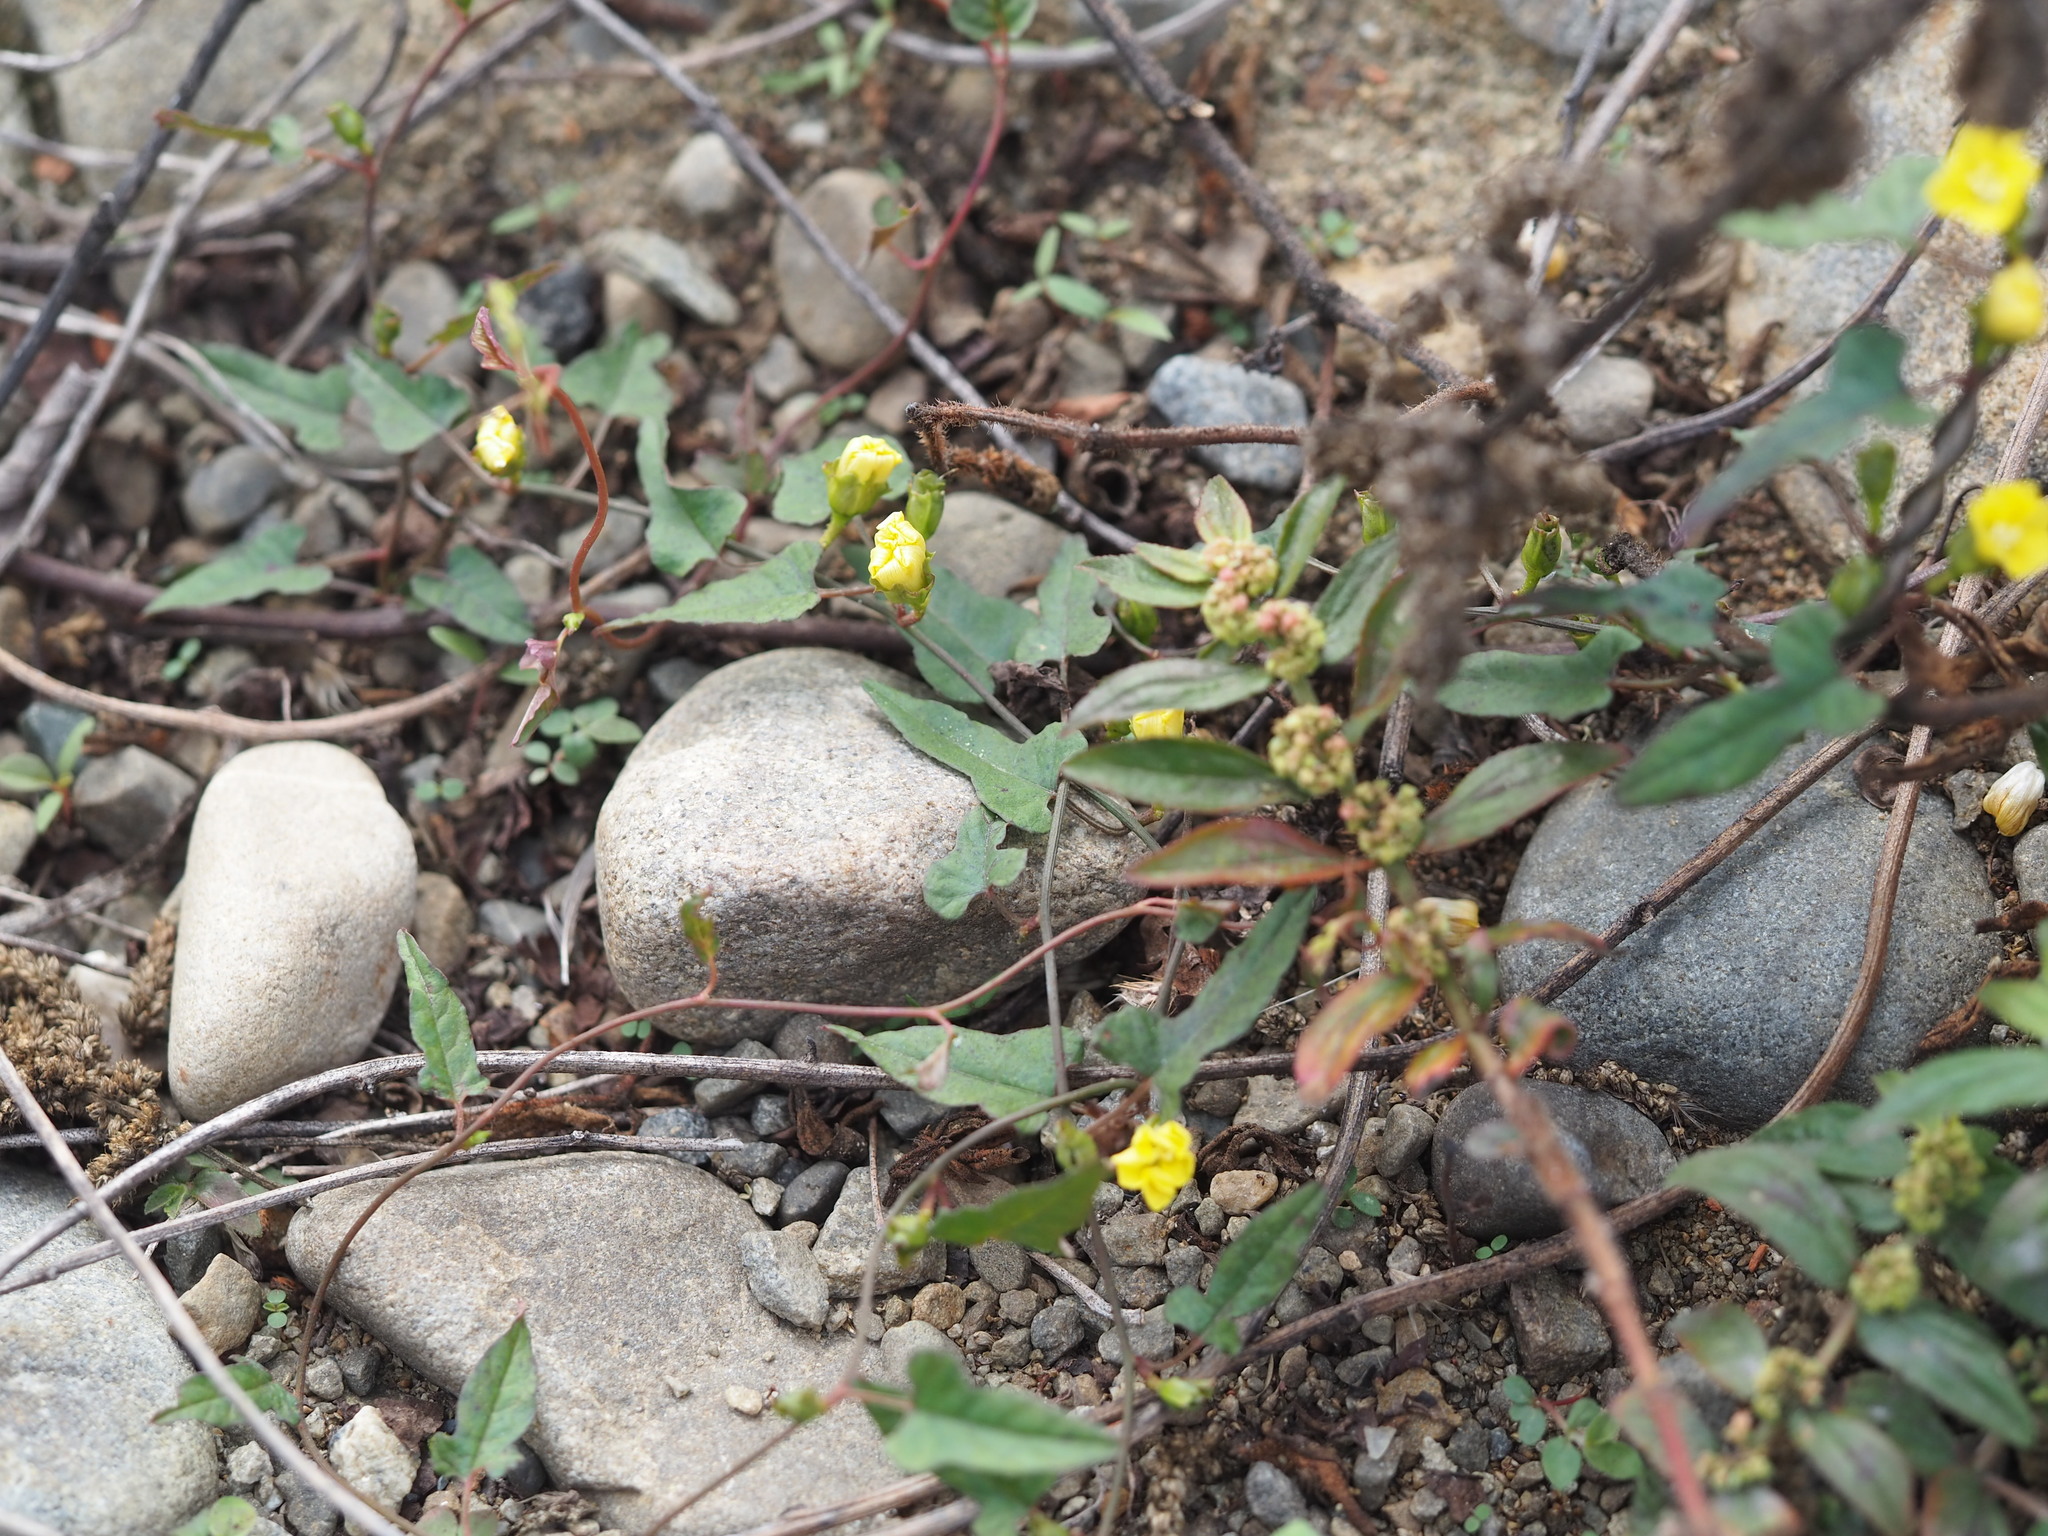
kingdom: Plantae
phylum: Tracheophyta
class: Magnoliopsida
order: Solanales
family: Convolvulaceae
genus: Merremia
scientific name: Merremia hederacea
